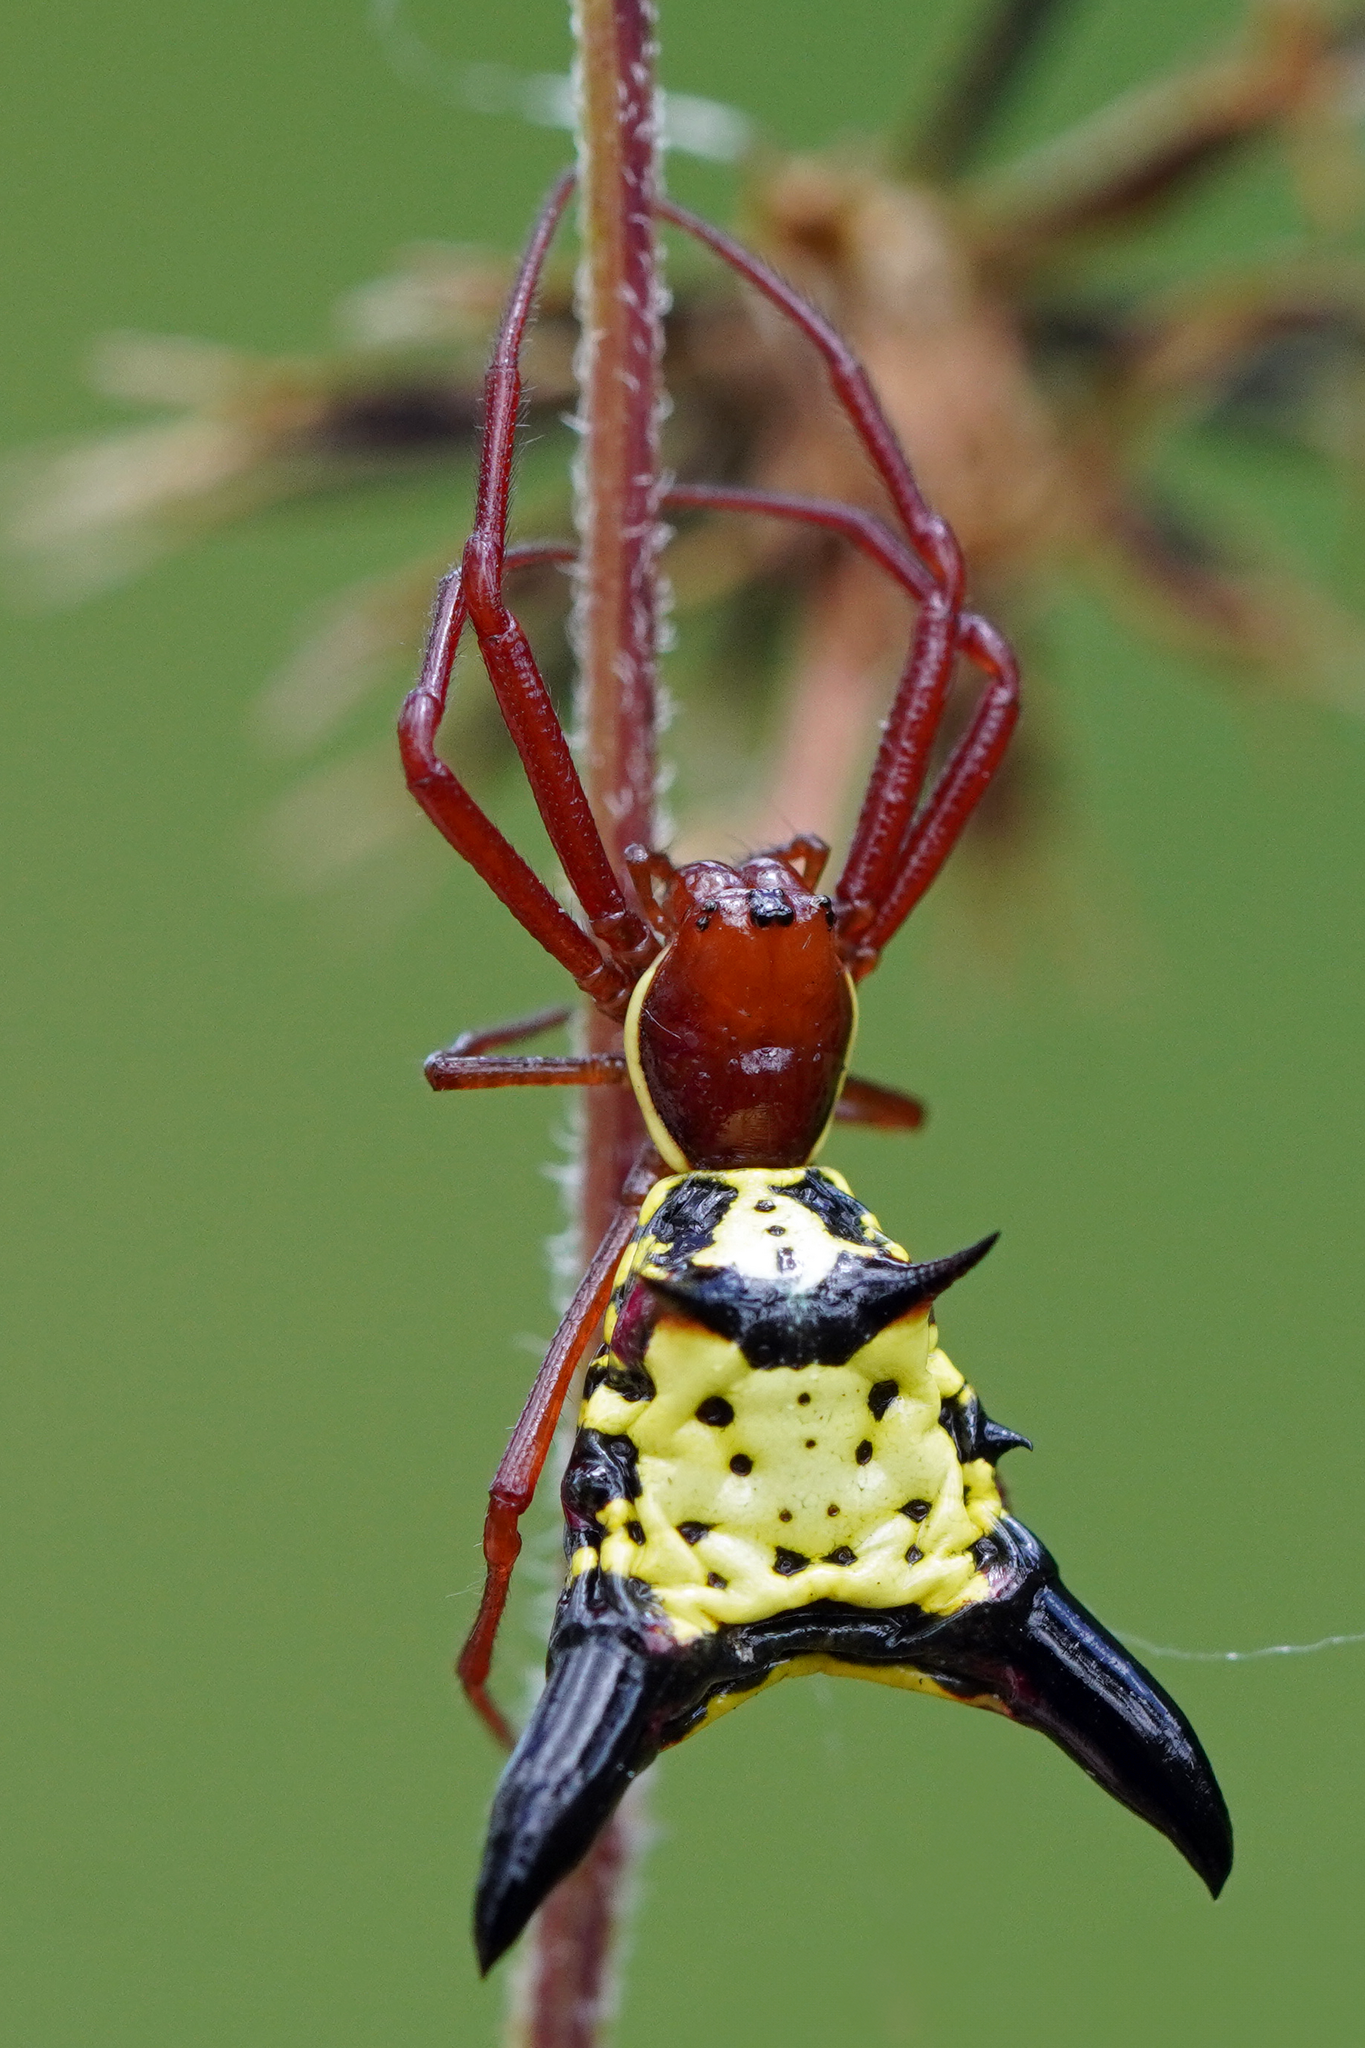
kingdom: Animalia
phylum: Arthropoda
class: Arachnida
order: Araneae
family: Araneidae
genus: Micrathena
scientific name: Micrathena sagittata
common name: Orb weavers
